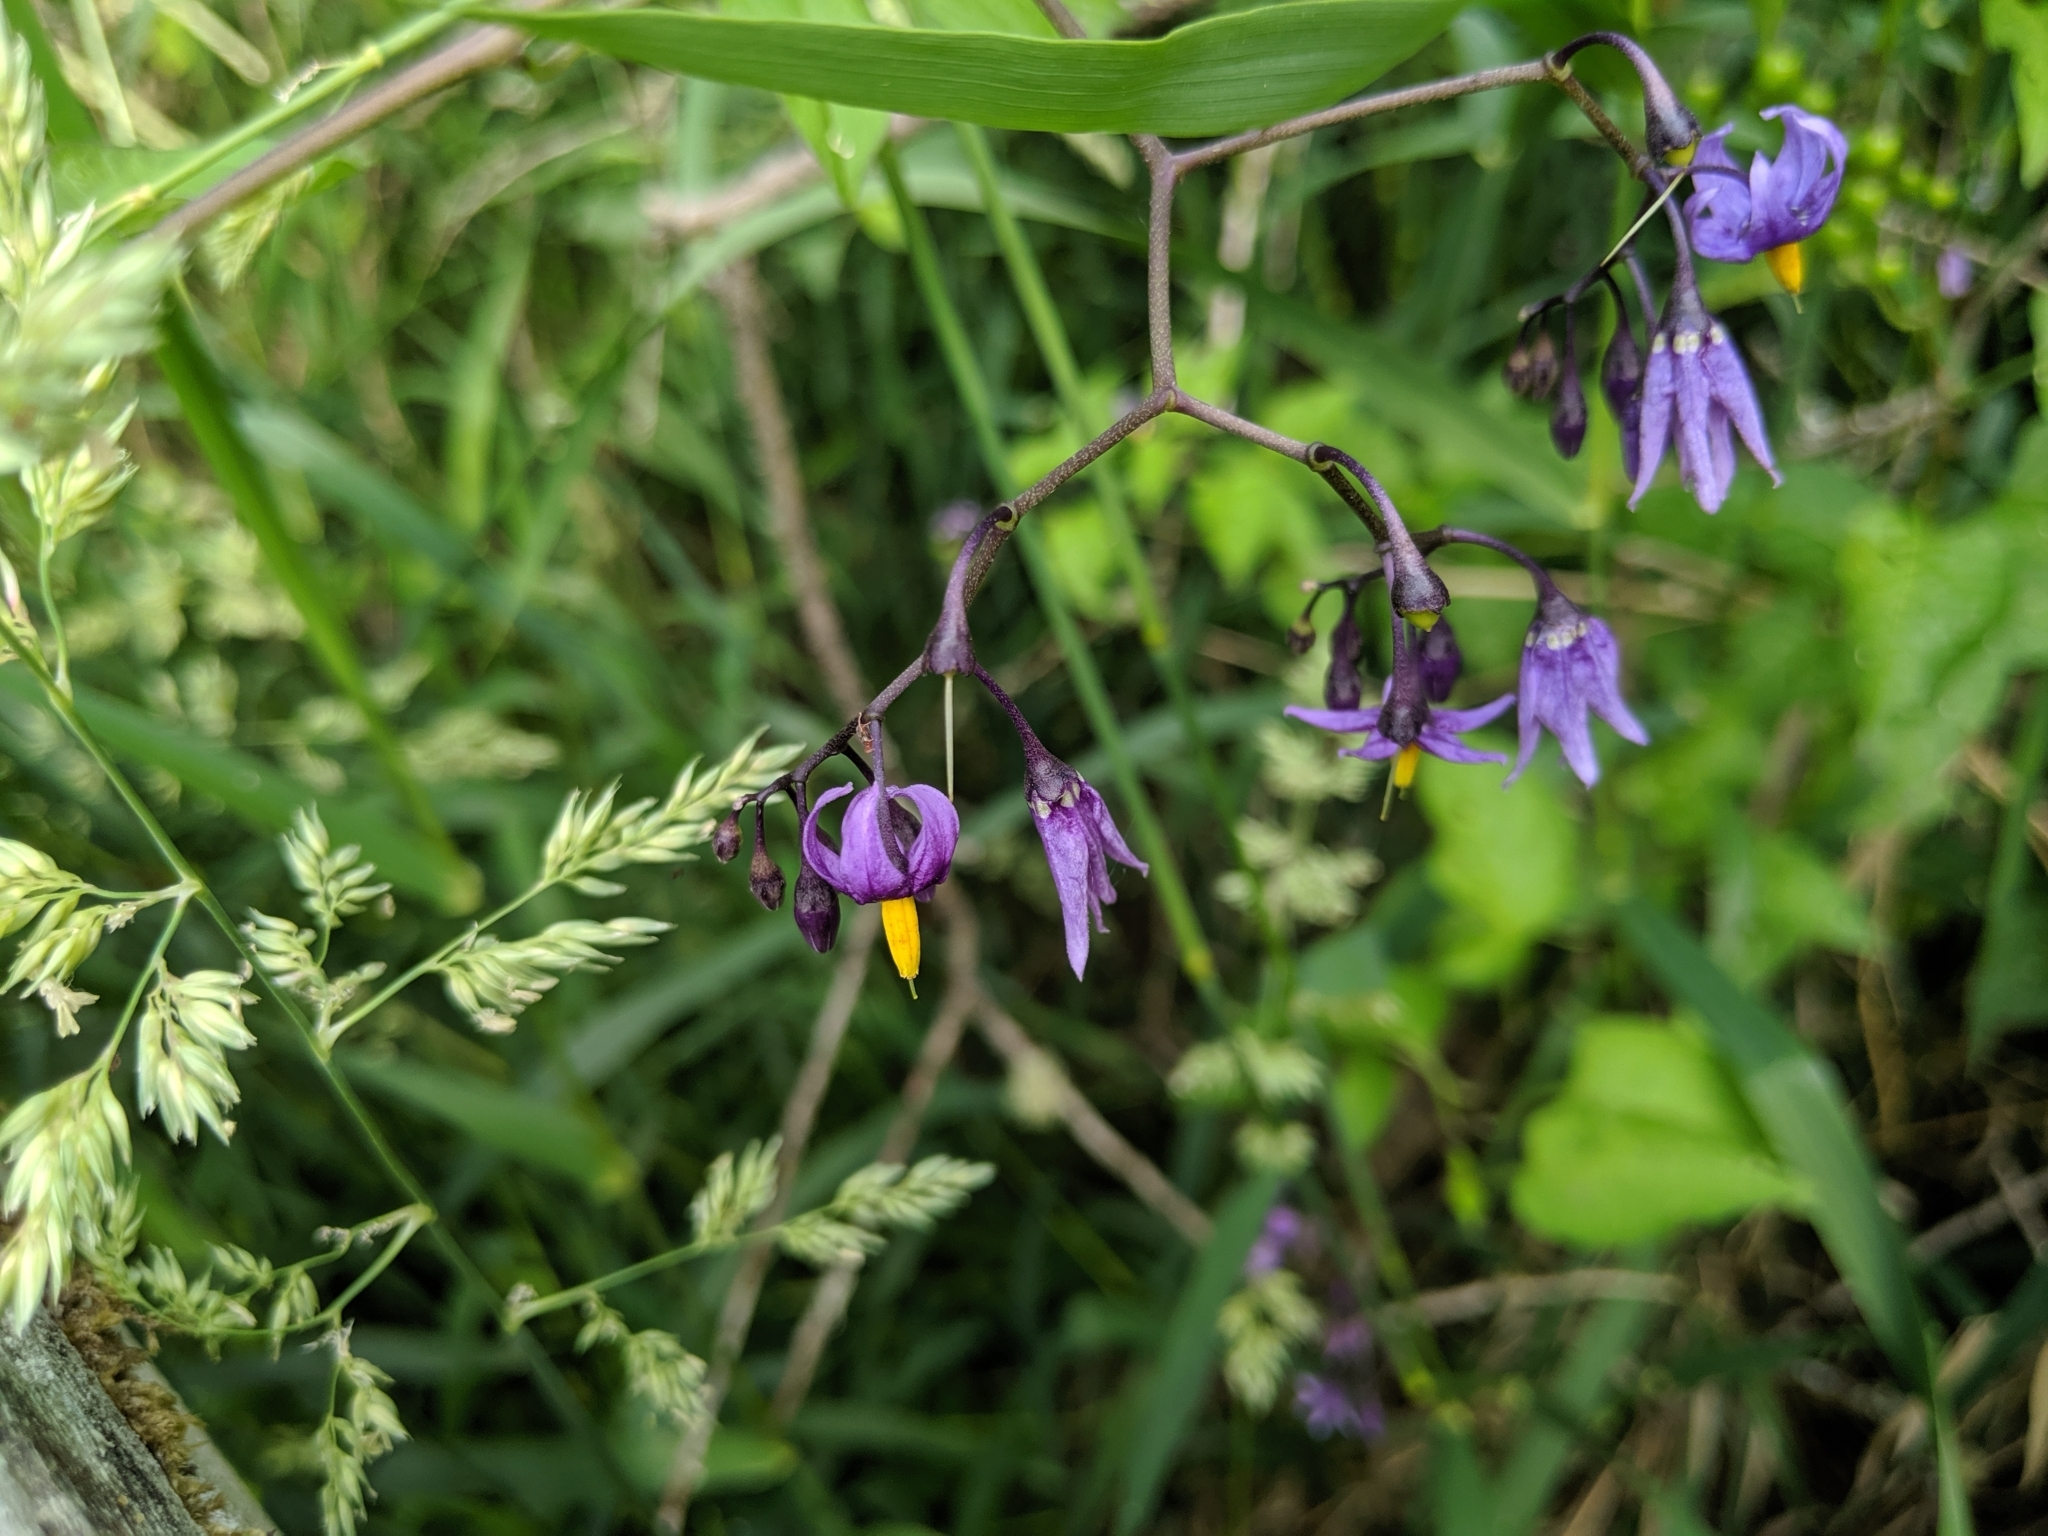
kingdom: Plantae
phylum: Tracheophyta
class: Magnoliopsida
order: Solanales
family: Solanaceae
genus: Solanum
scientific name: Solanum dulcamara
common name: Climbing nightshade
